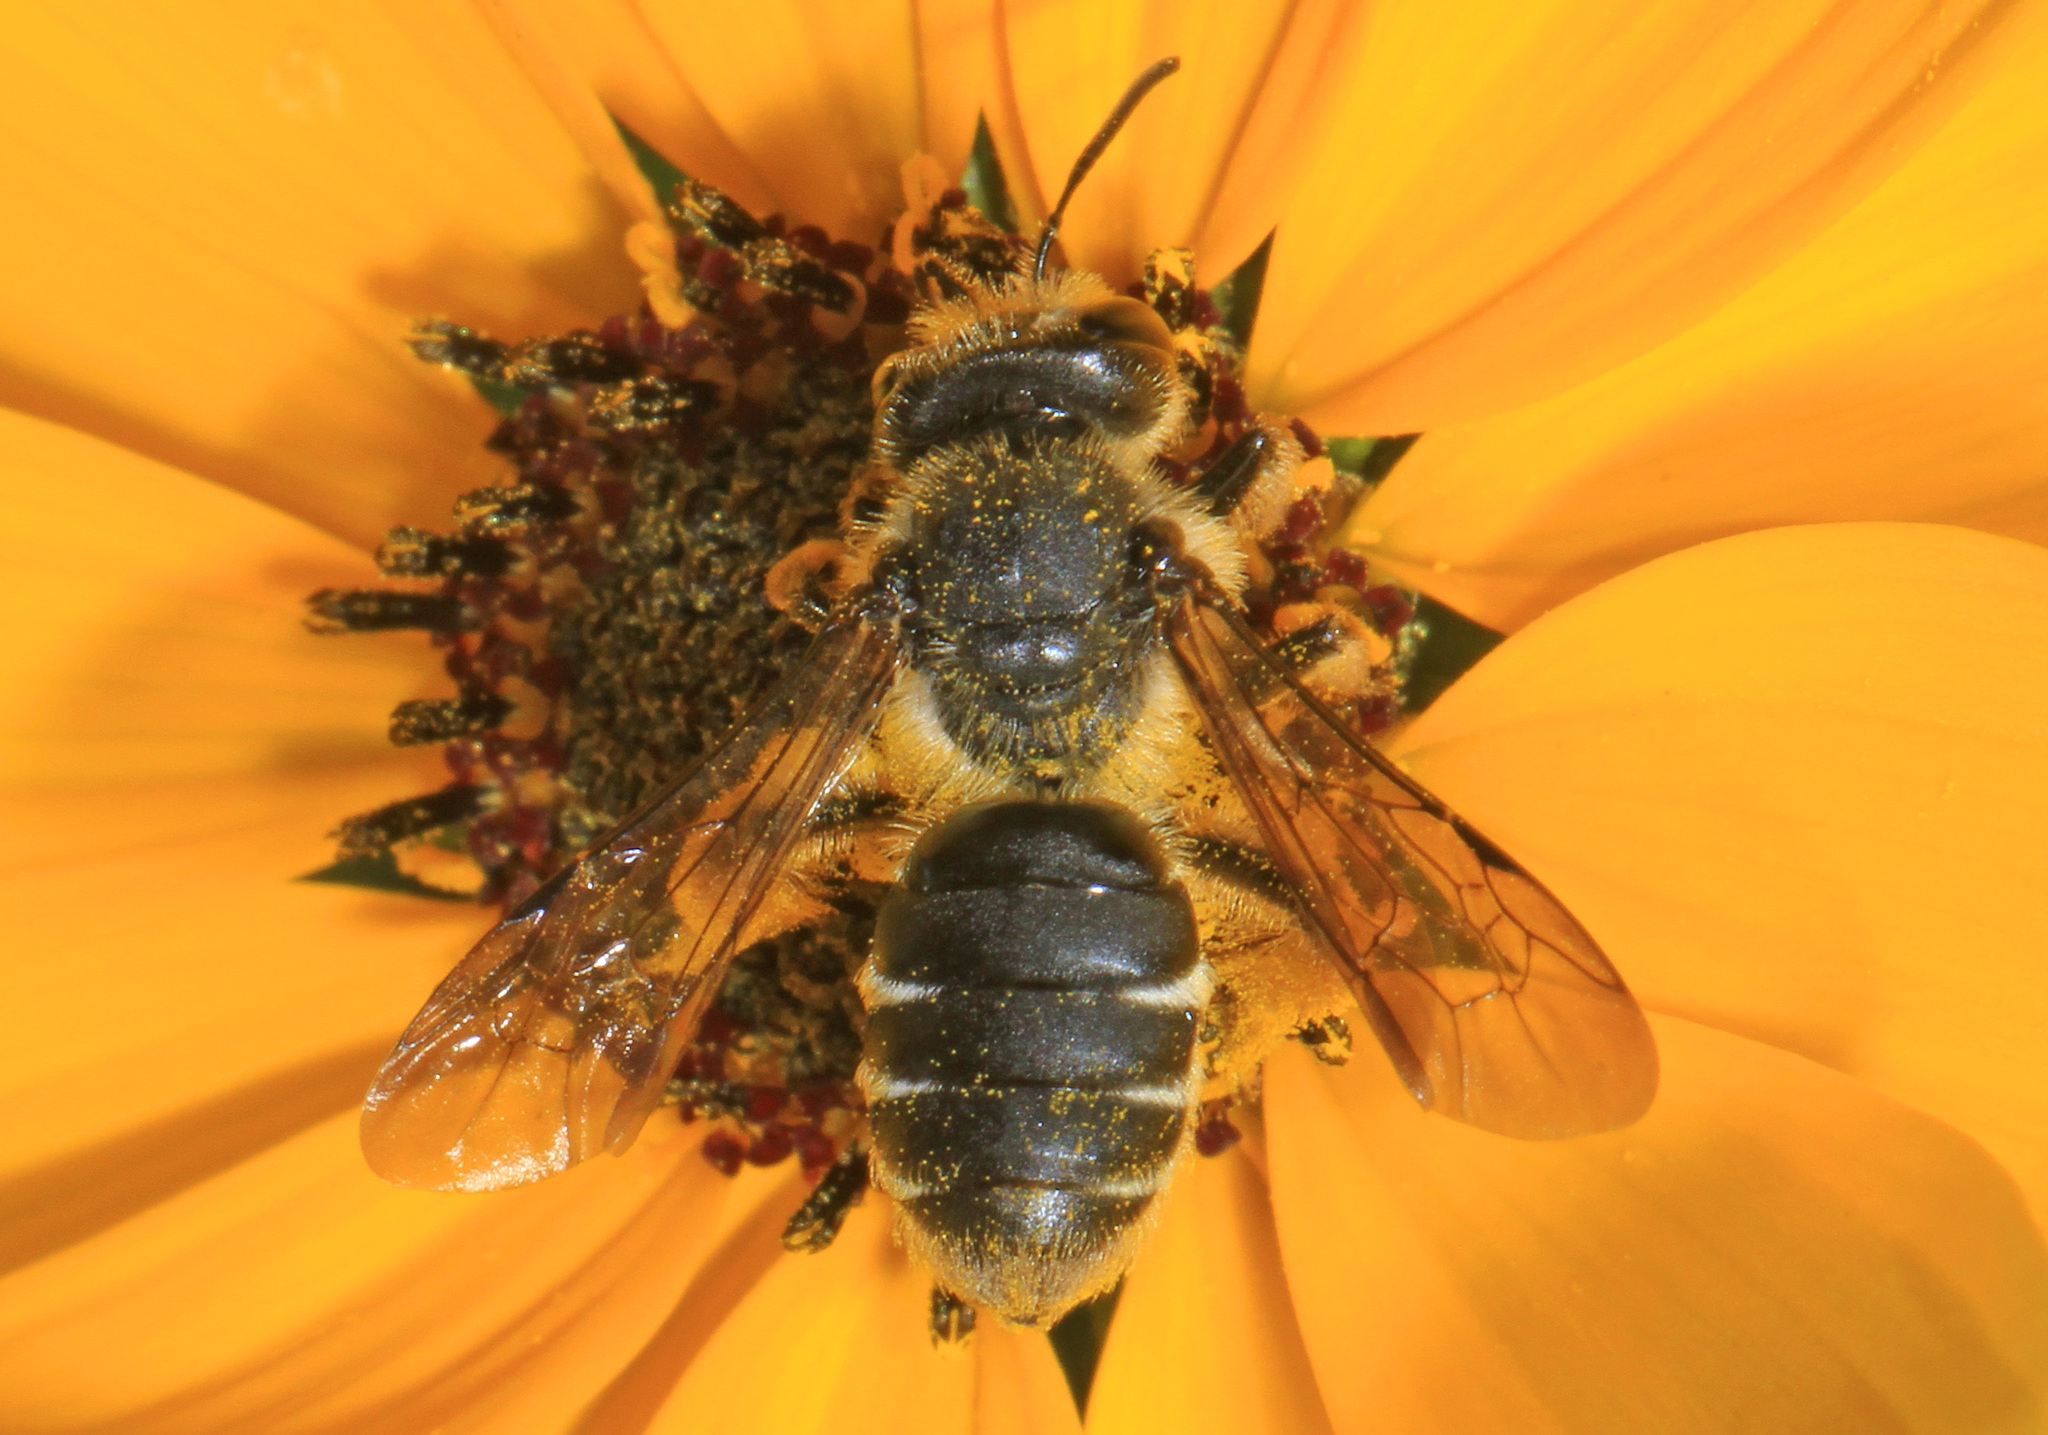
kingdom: Animalia
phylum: Arthropoda
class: Insecta
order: Hymenoptera
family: Andrenidae
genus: Andrena
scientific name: Andrena aliciae
